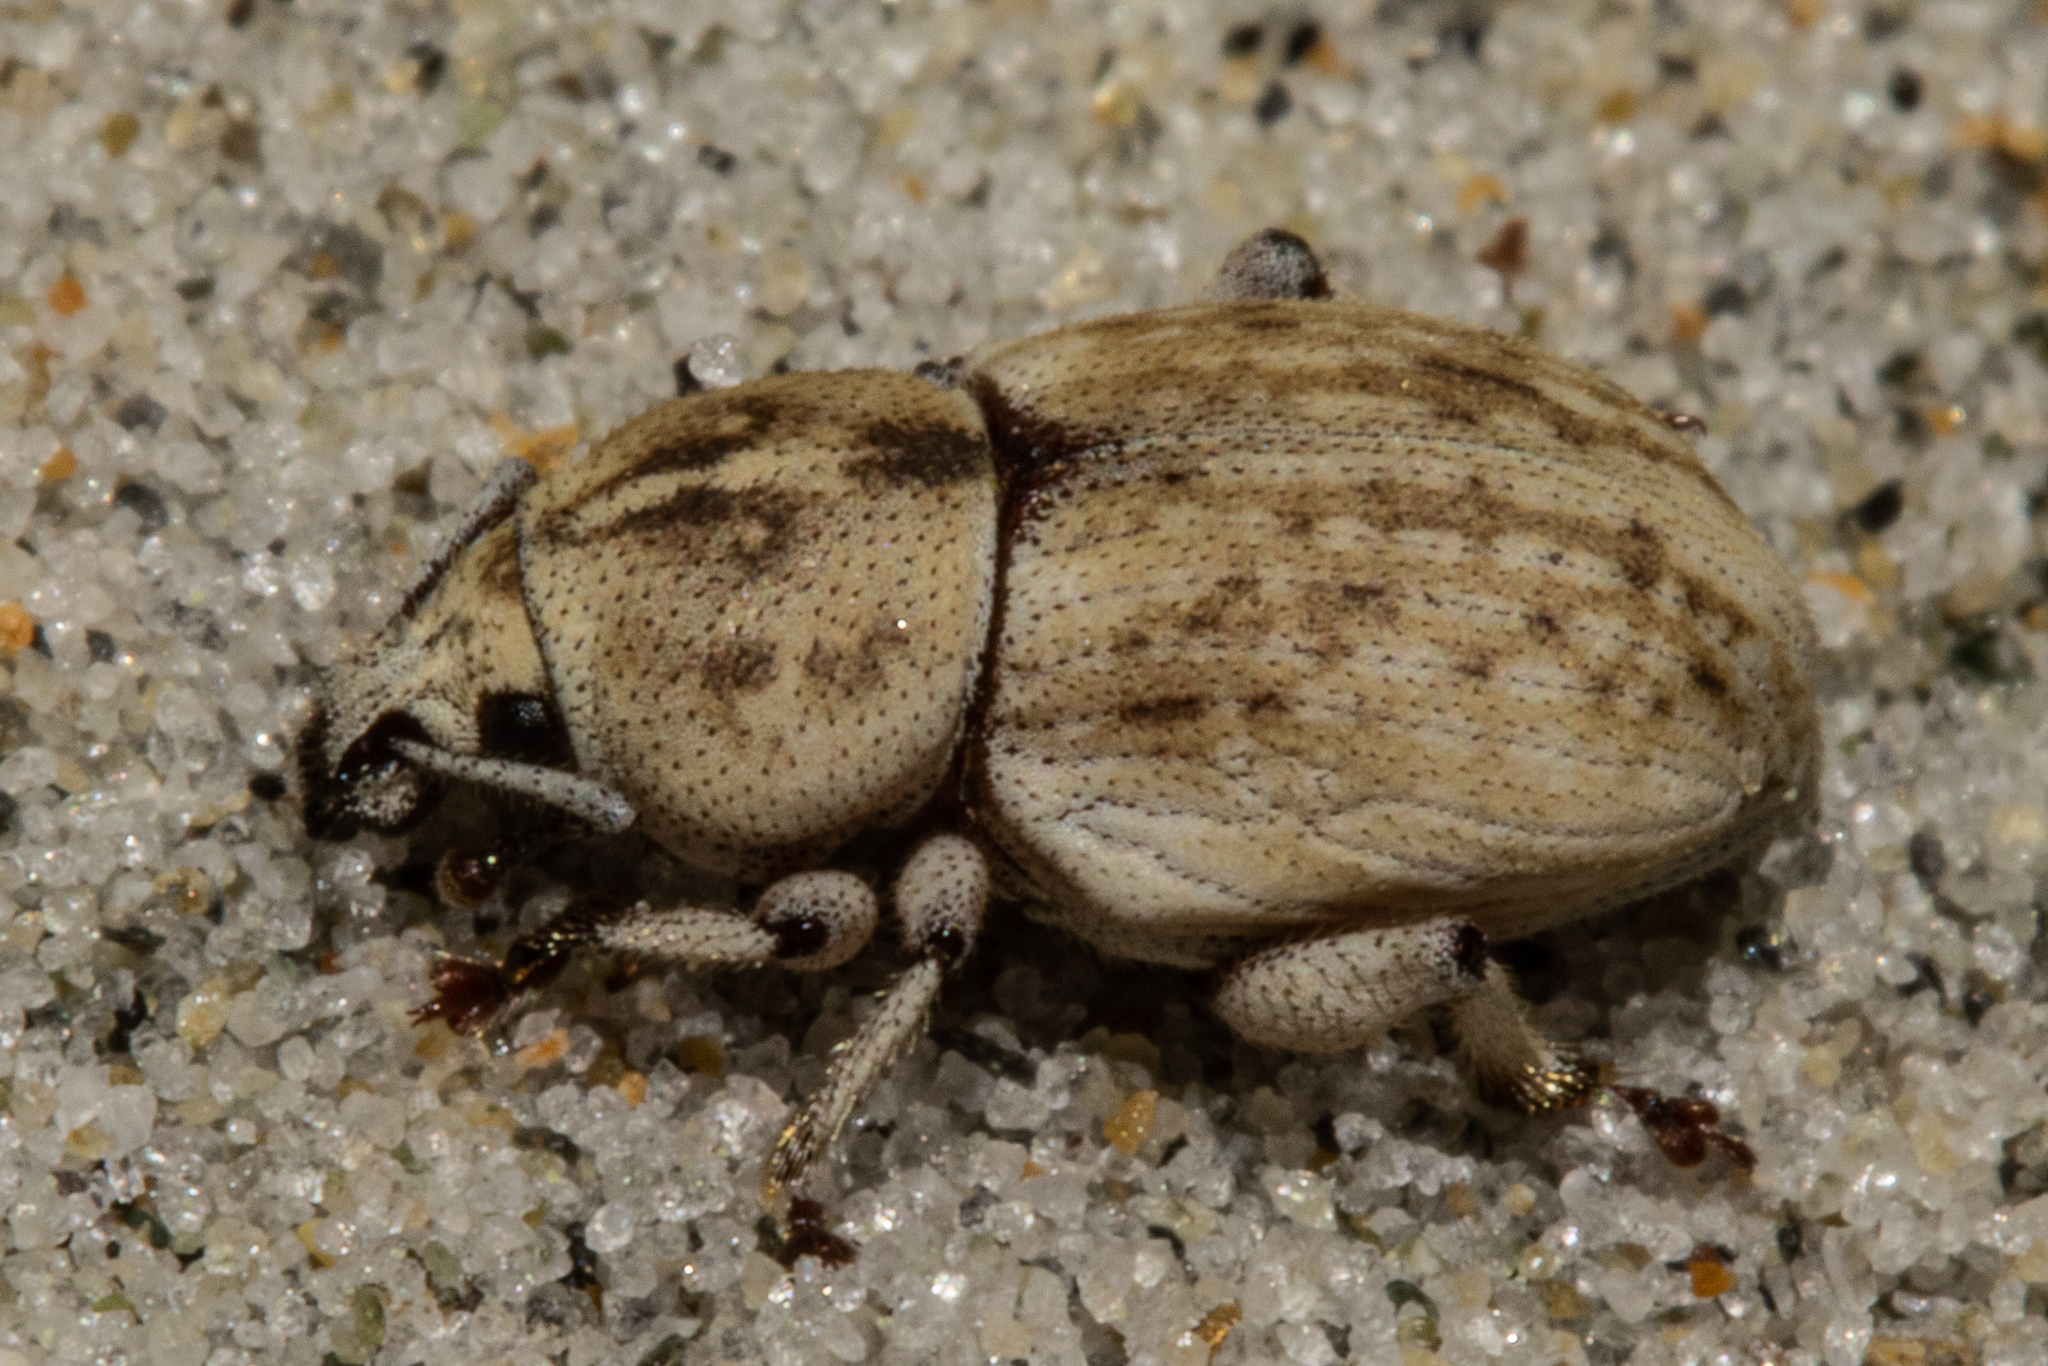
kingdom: Animalia
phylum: Arthropoda
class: Insecta
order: Coleoptera
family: Curculionidae
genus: Cecyropa
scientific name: Cecyropa modesta
